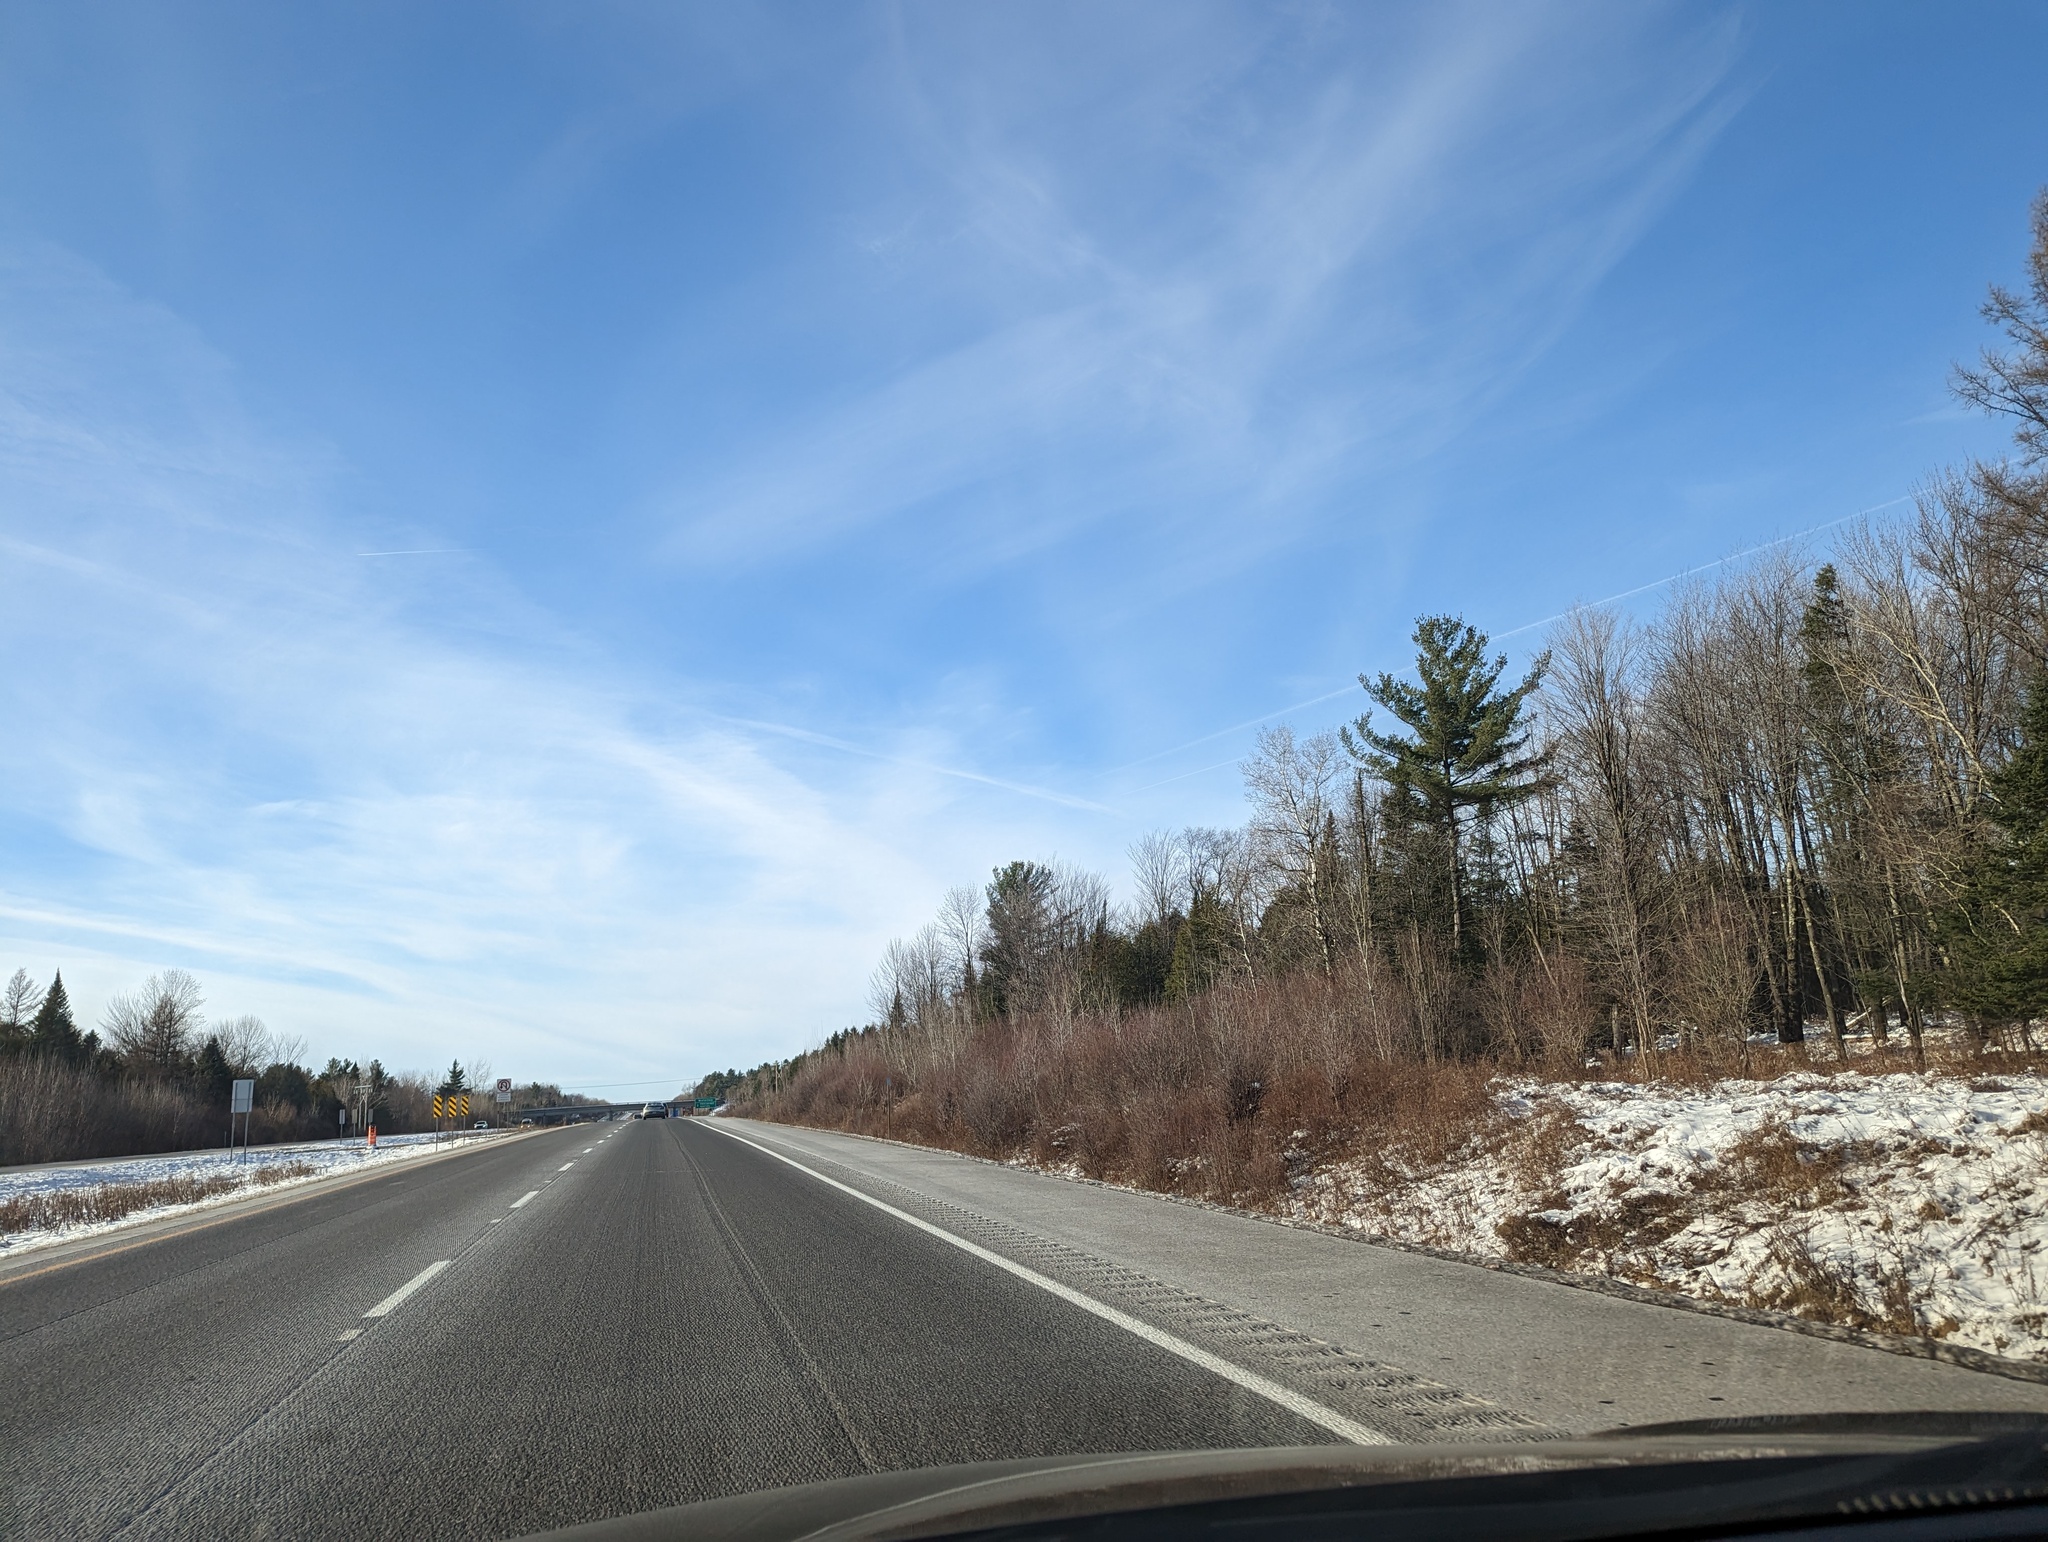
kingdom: Plantae
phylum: Tracheophyta
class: Pinopsida
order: Pinales
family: Pinaceae
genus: Pinus
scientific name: Pinus strobus
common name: Weymouth pine
